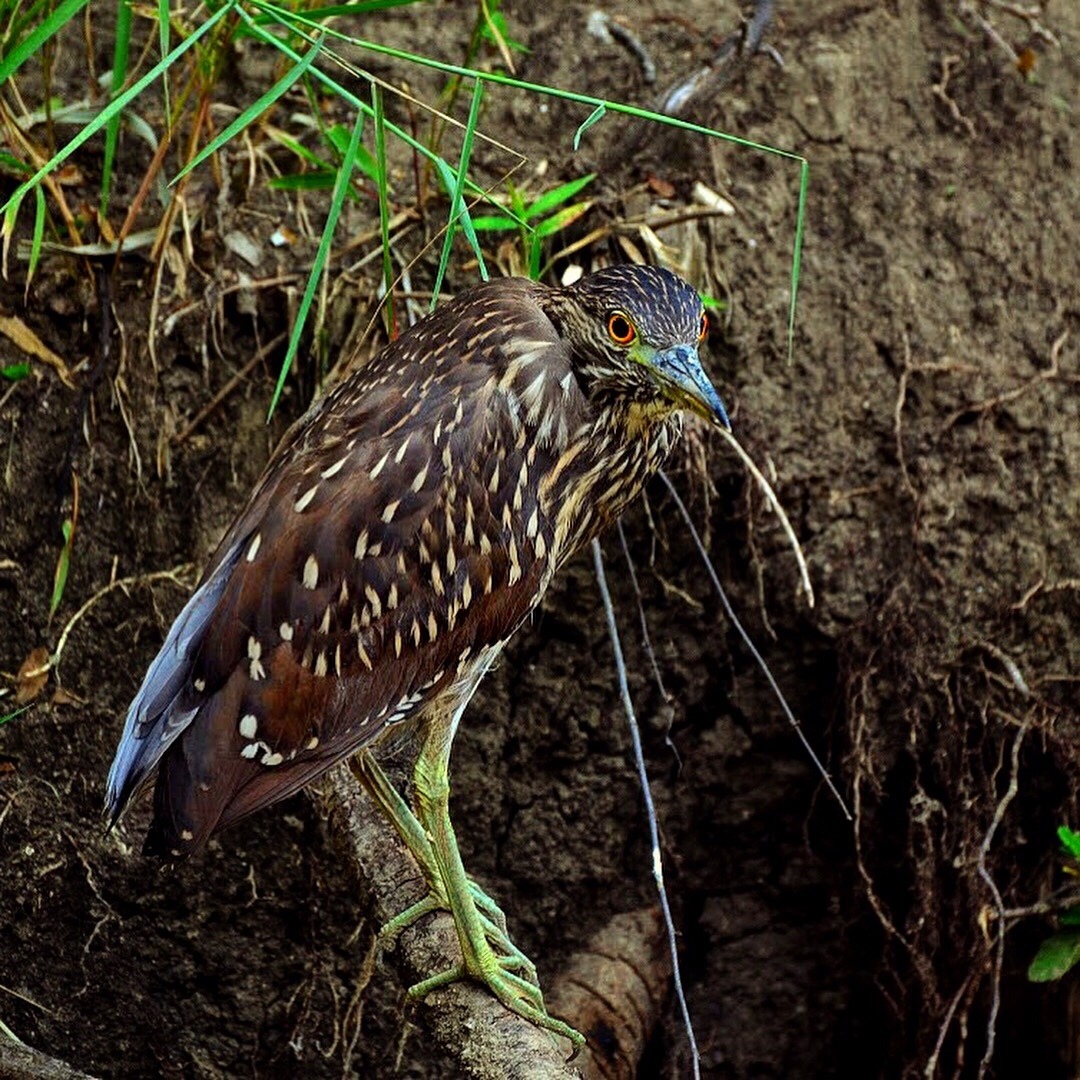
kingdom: Animalia
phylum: Chordata
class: Aves
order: Pelecaniformes
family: Ardeidae
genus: Nycticorax
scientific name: Nycticorax nycticorax
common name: Black-crowned night heron
